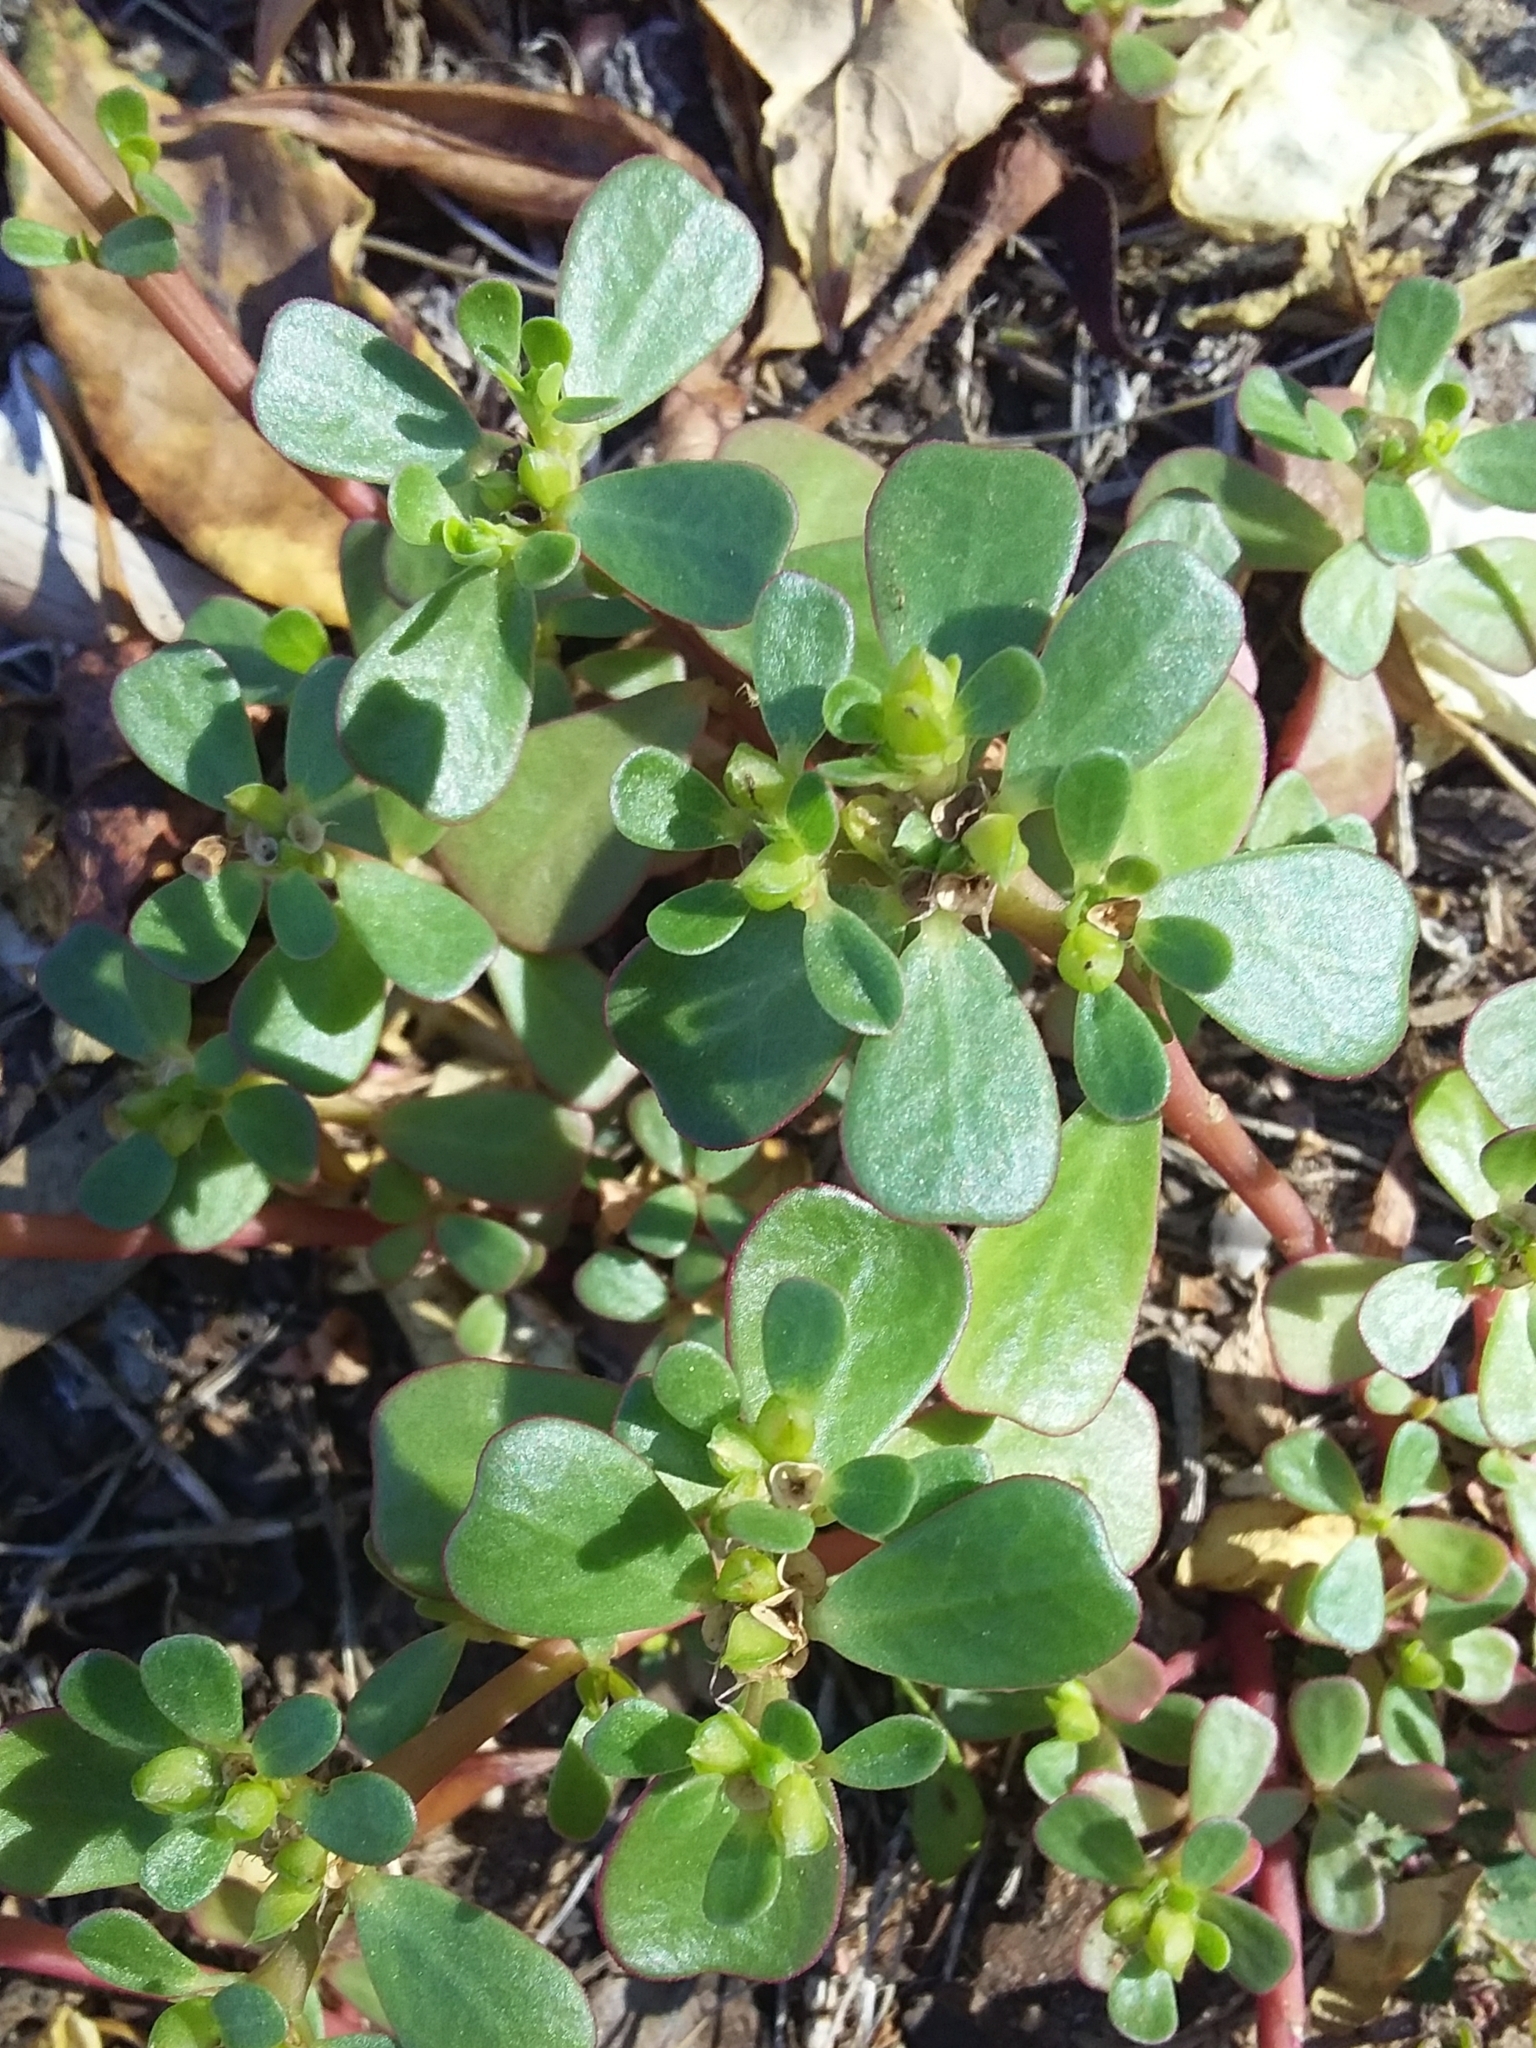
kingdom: Plantae
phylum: Tracheophyta
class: Magnoliopsida
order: Caryophyllales
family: Portulacaceae
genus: Portulaca
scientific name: Portulaca oleracea
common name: Common purslane
